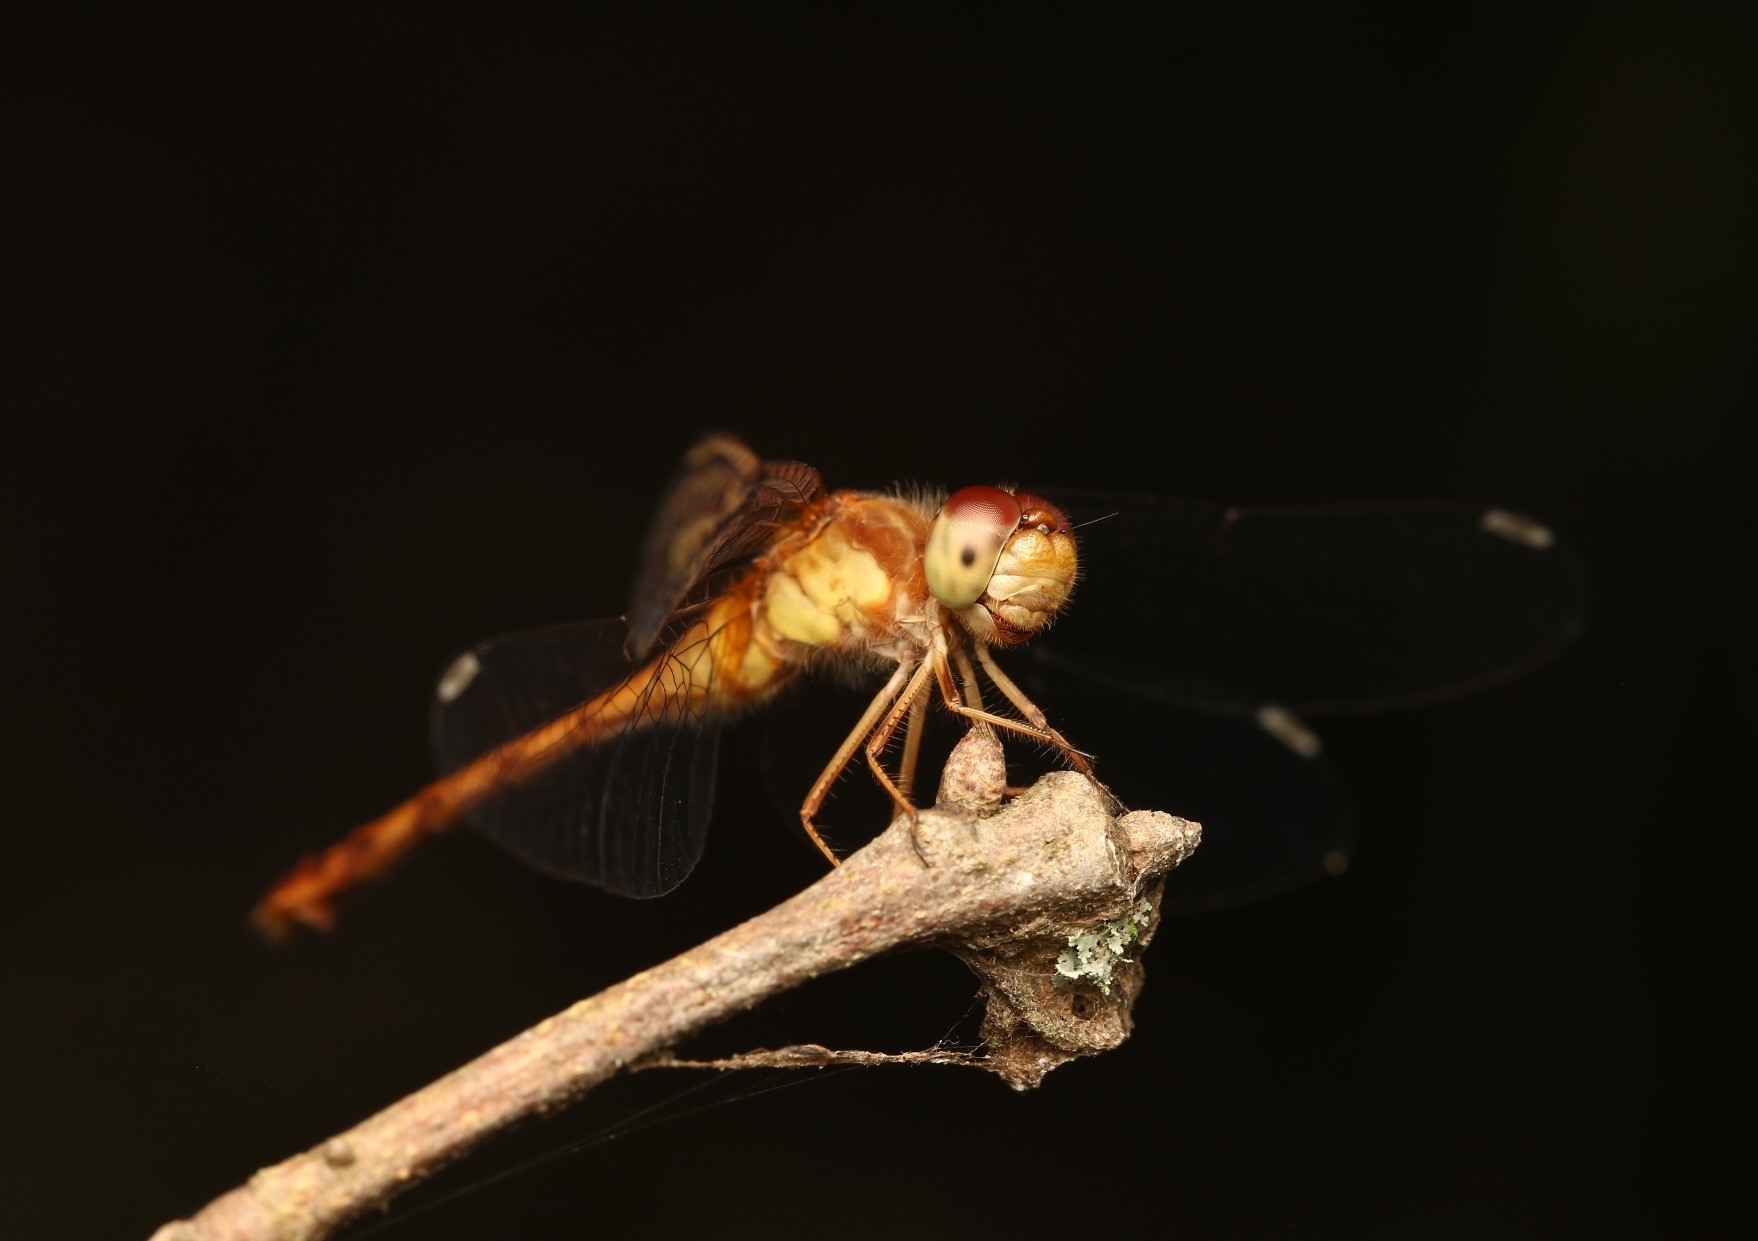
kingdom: Animalia
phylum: Arthropoda
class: Insecta
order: Odonata
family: Libellulidae
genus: Sympetrum
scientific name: Sympetrum vicinum
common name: Autumn meadowhawk
